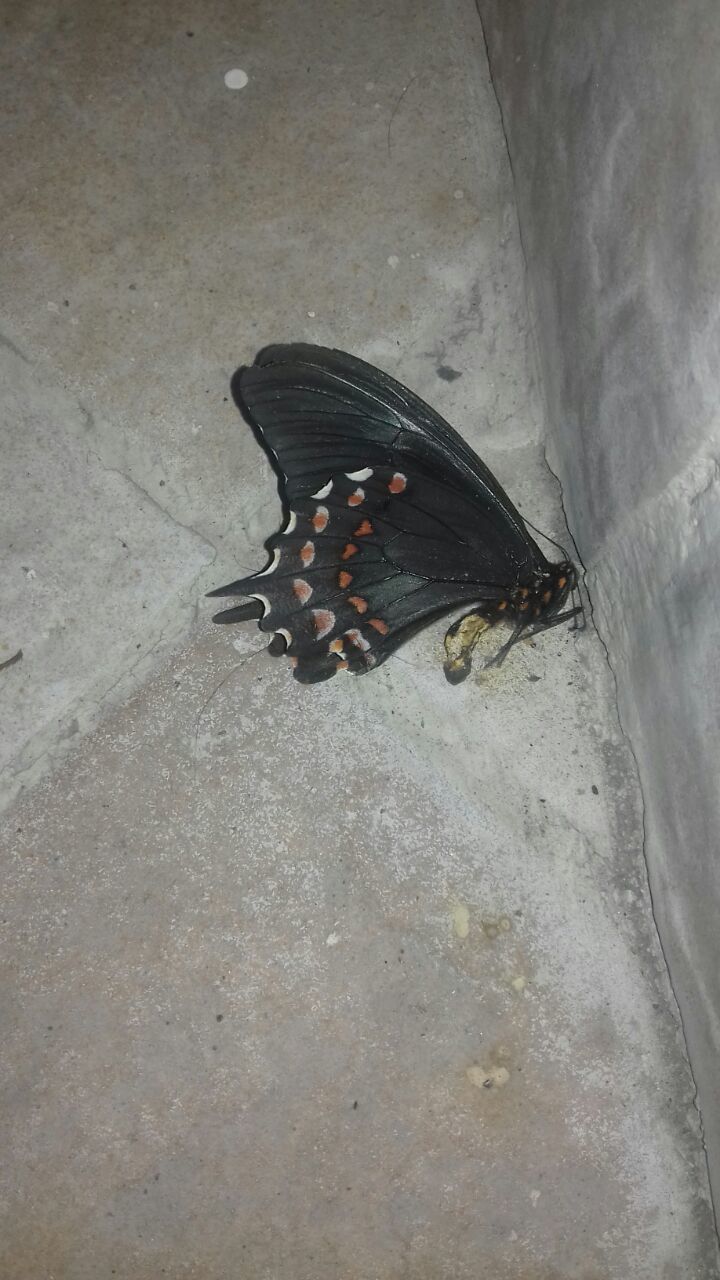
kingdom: Animalia
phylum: Arthropoda
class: Insecta
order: Lepidoptera
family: Papilionidae
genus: Heraclides
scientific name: Heraclides rogeri
